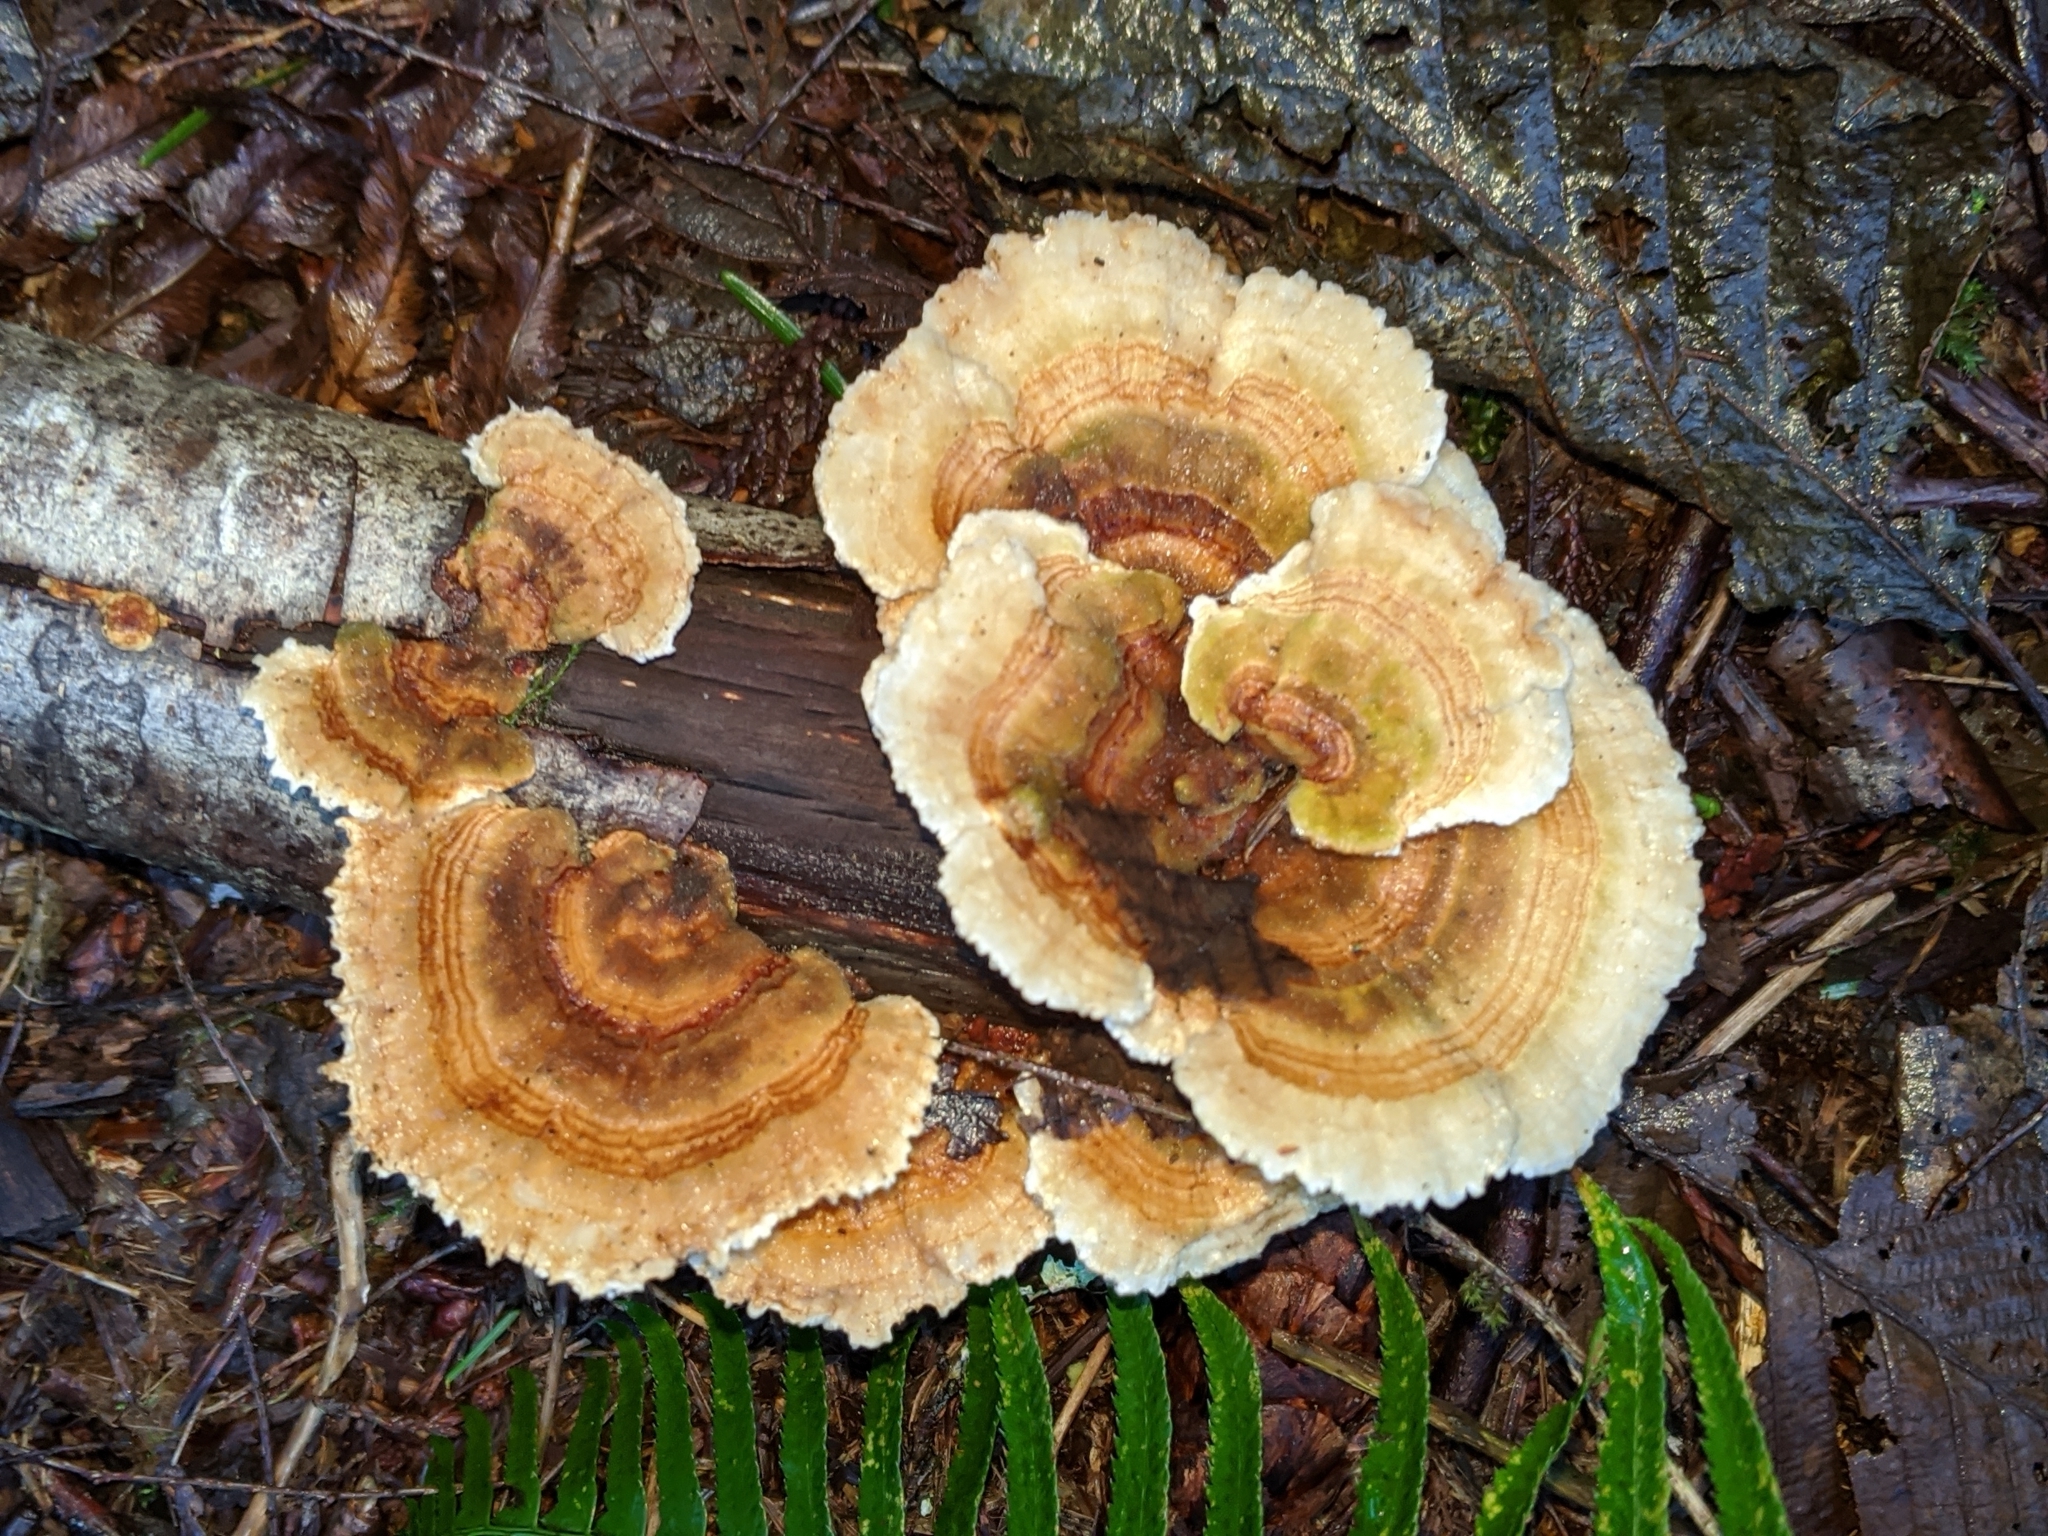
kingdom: Fungi
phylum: Basidiomycota
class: Agaricomycetes
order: Polyporales
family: Polyporaceae
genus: Trametes
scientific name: Trametes ochracea
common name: Ochre bracket
